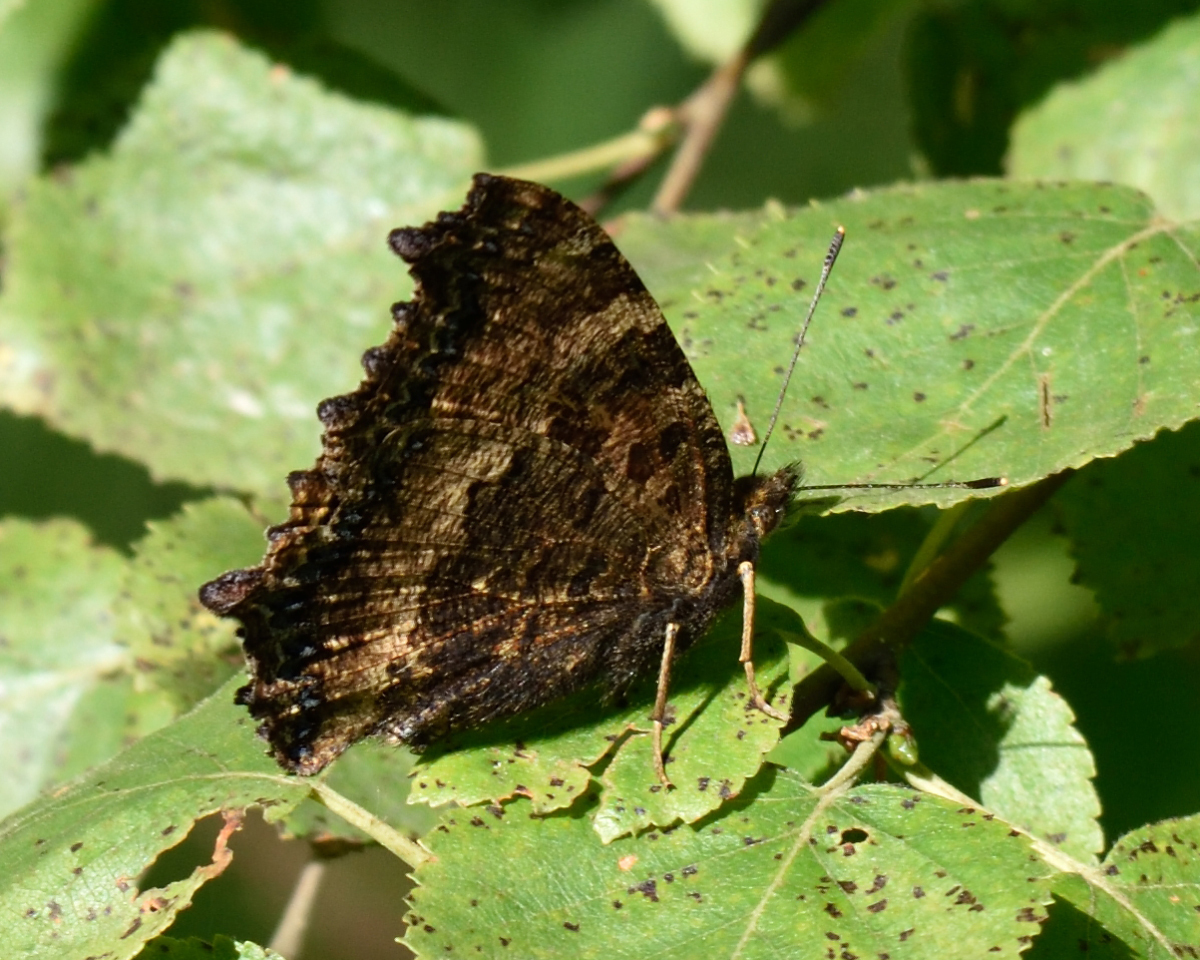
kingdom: Animalia
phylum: Arthropoda
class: Insecta
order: Lepidoptera
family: Nymphalidae
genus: Nymphalis
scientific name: Nymphalis xanthomelas
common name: Scarce tortoiseshell
